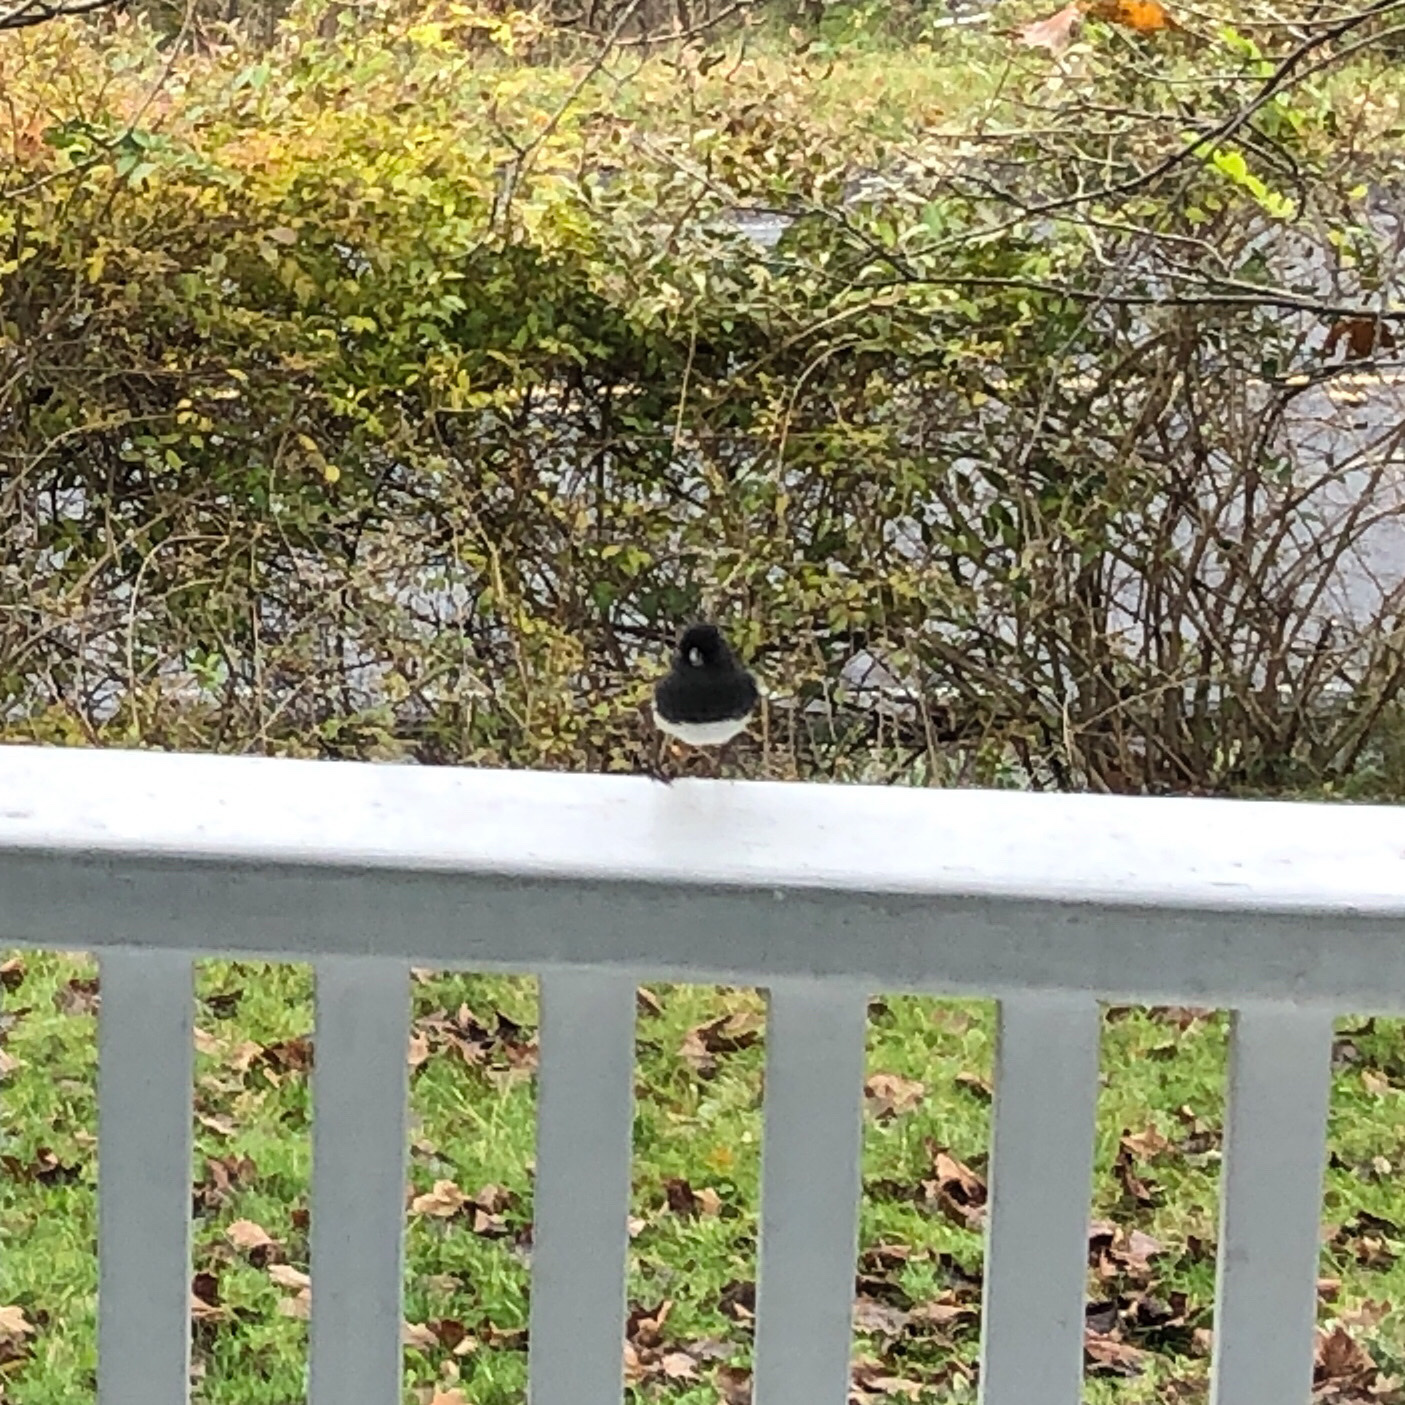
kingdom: Animalia
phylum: Chordata
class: Aves
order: Passeriformes
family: Passerellidae
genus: Junco
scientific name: Junco hyemalis
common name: Dark-eyed junco
